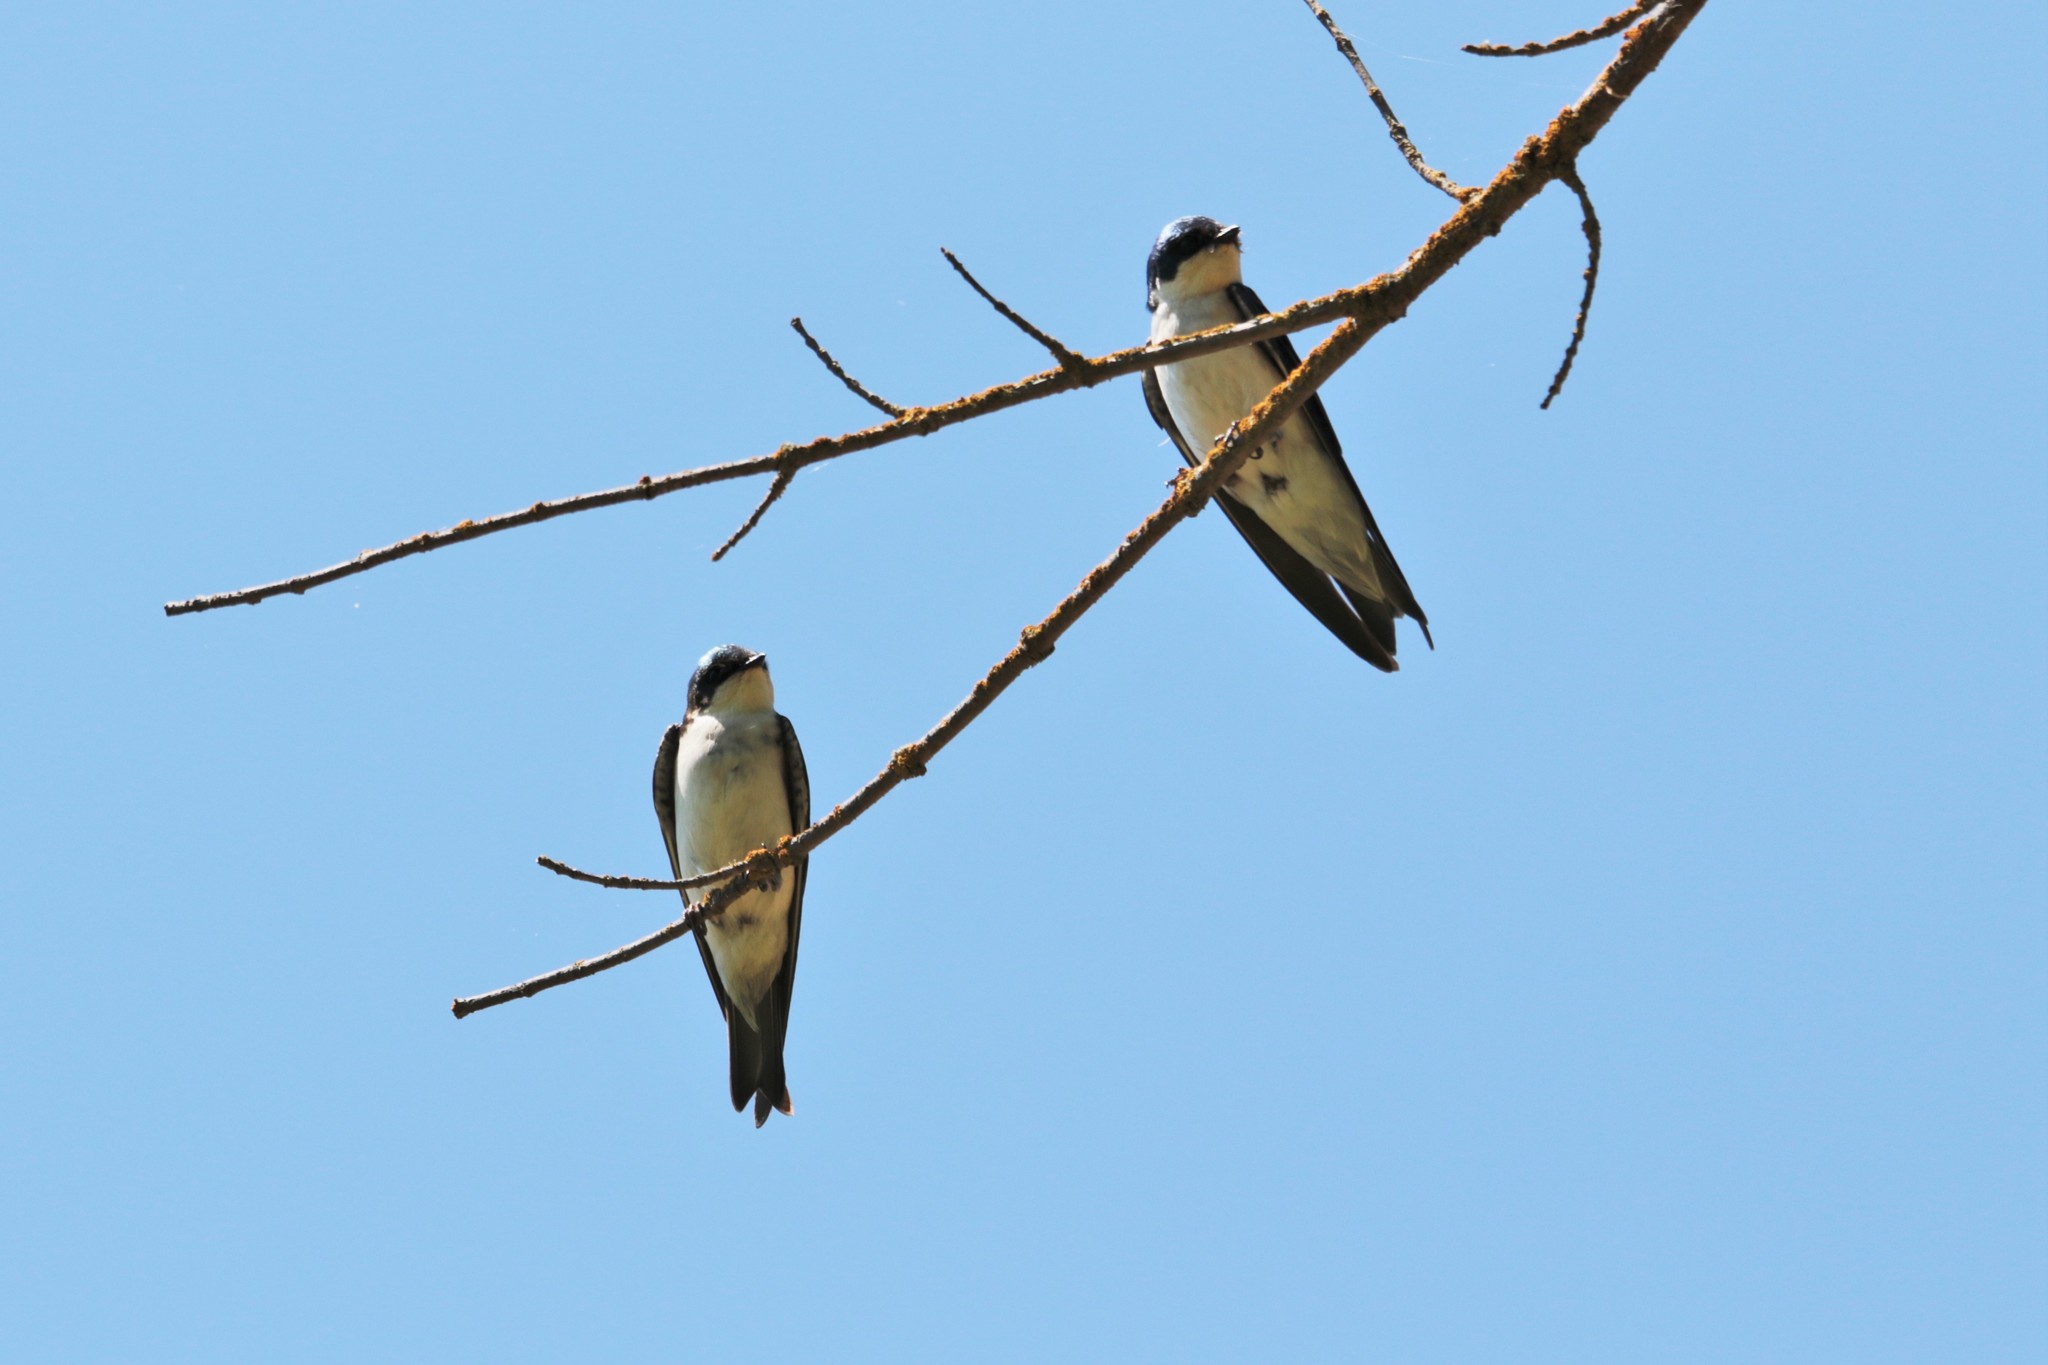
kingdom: Animalia
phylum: Chordata
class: Aves
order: Passeriformes
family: Hirundinidae
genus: Tachycineta
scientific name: Tachycineta bicolor
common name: Tree swallow
